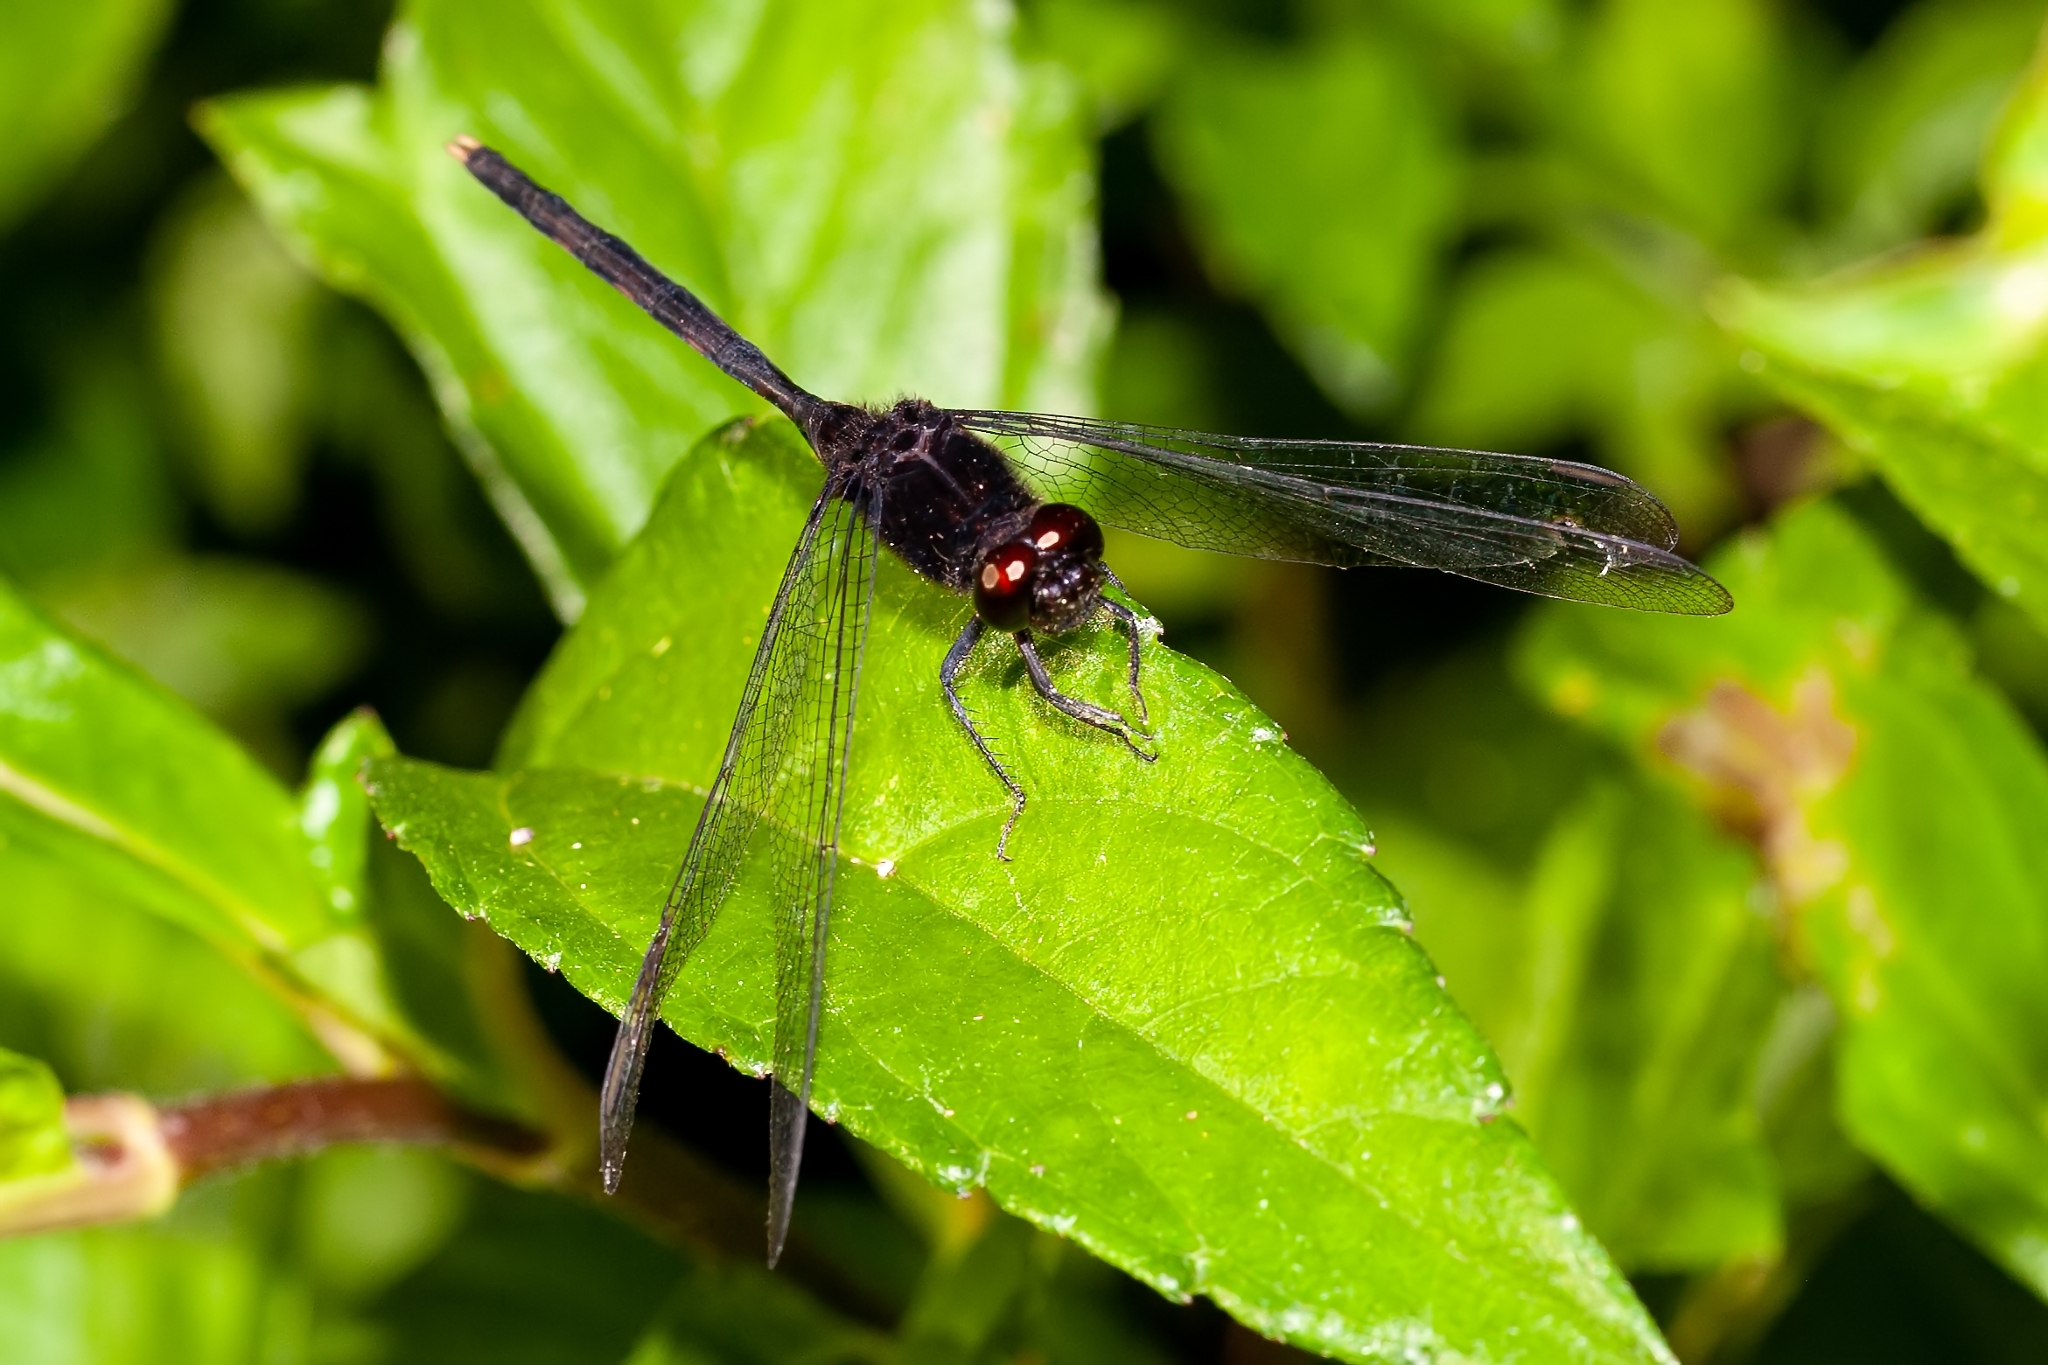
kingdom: Animalia
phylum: Arthropoda
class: Insecta
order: Odonata
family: Libellulidae
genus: Erythemis
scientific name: Erythemis plebeja
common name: Pin-tailed pondhawk
